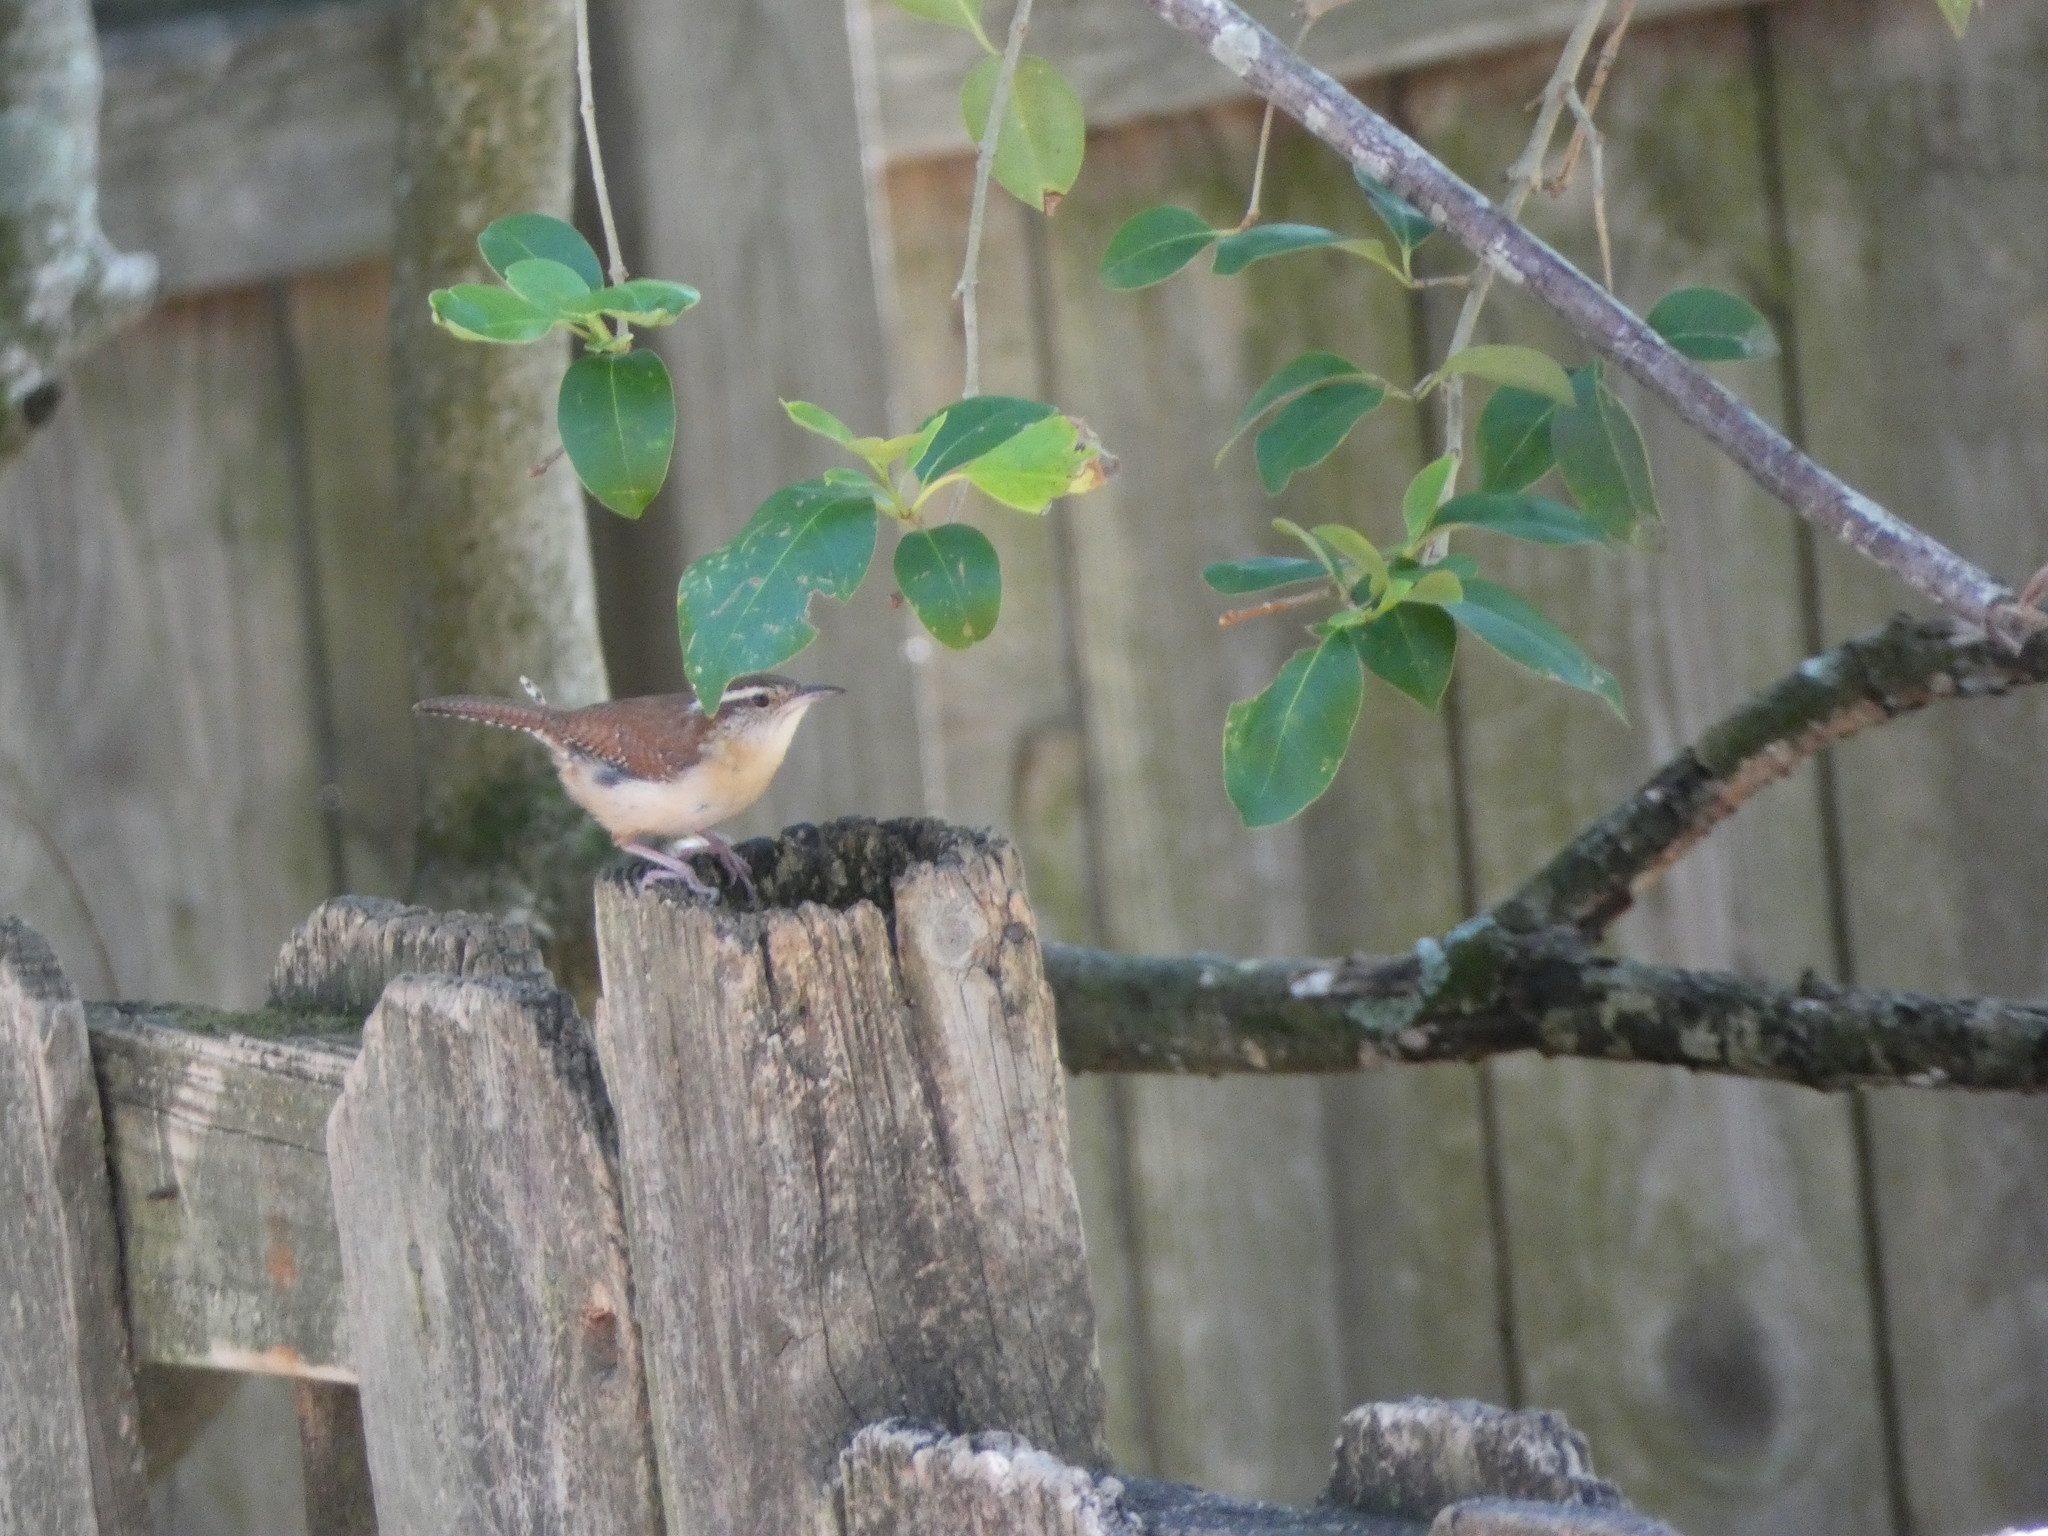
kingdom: Animalia
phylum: Chordata
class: Aves
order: Passeriformes
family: Troglodytidae
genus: Thryothorus
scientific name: Thryothorus ludovicianus
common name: Carolina wren
